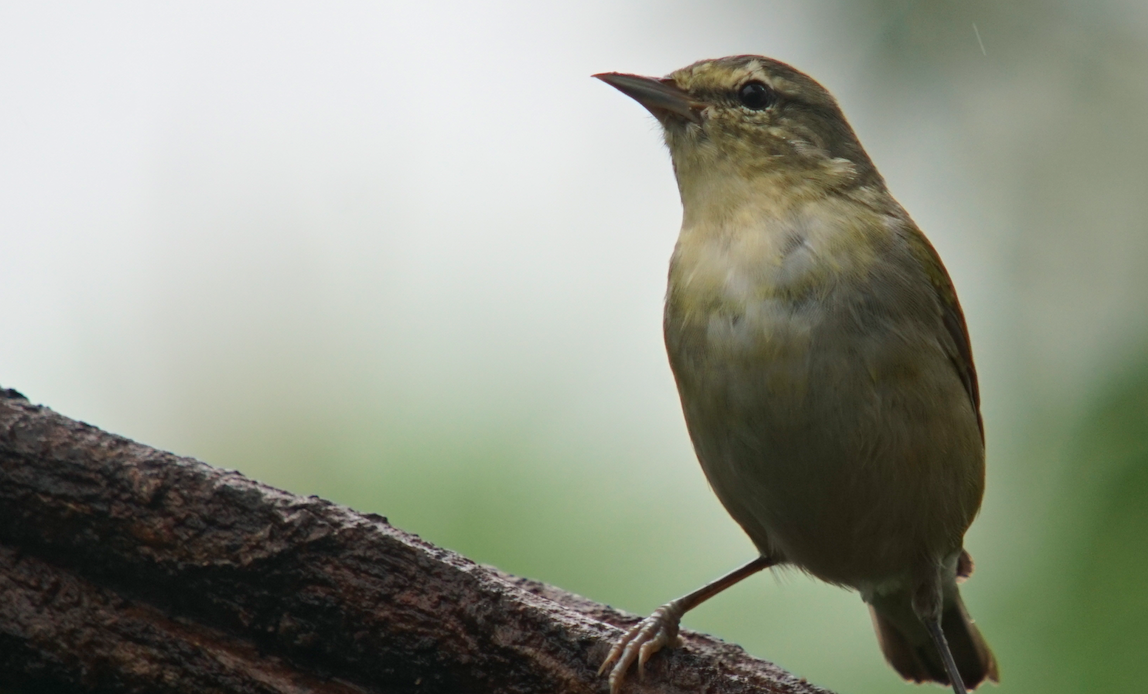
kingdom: Animalia
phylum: Chordata
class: Aves
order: Passeriformes
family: Parulidae
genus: Leiothlypis
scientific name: Leiothlypis peregrina
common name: Tennessee warbler
